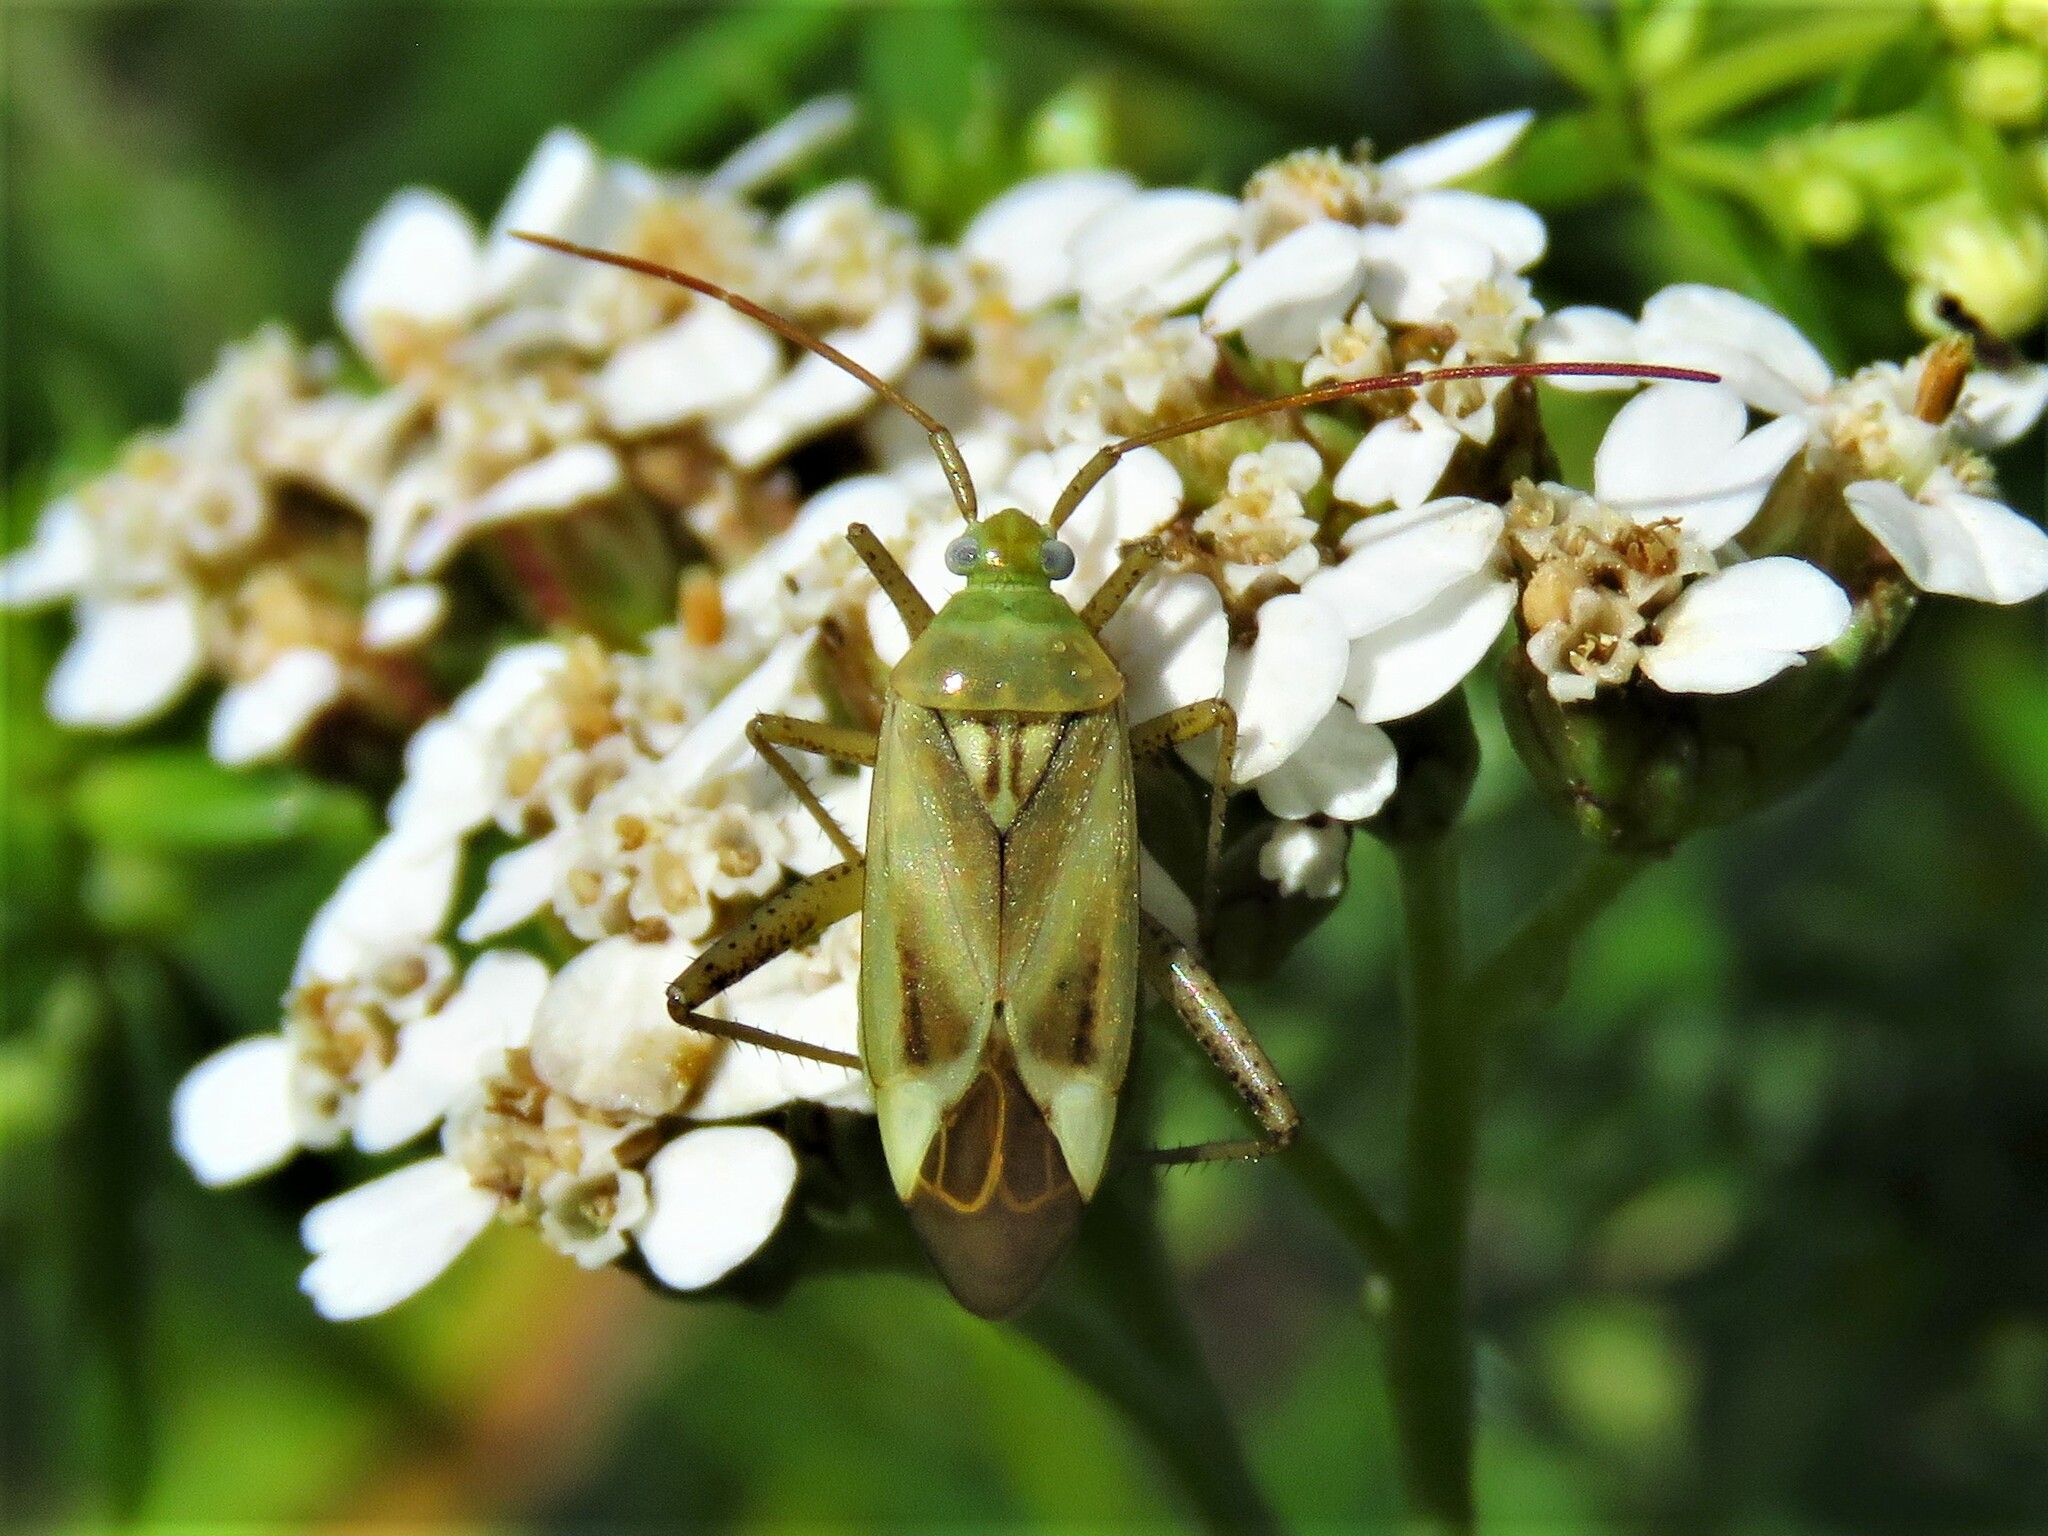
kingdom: Animalia
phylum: Arthropoda
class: Insecta
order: Hemiptera
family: Miridae
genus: Adelphocoris
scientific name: Adelphocoris lineolatus
